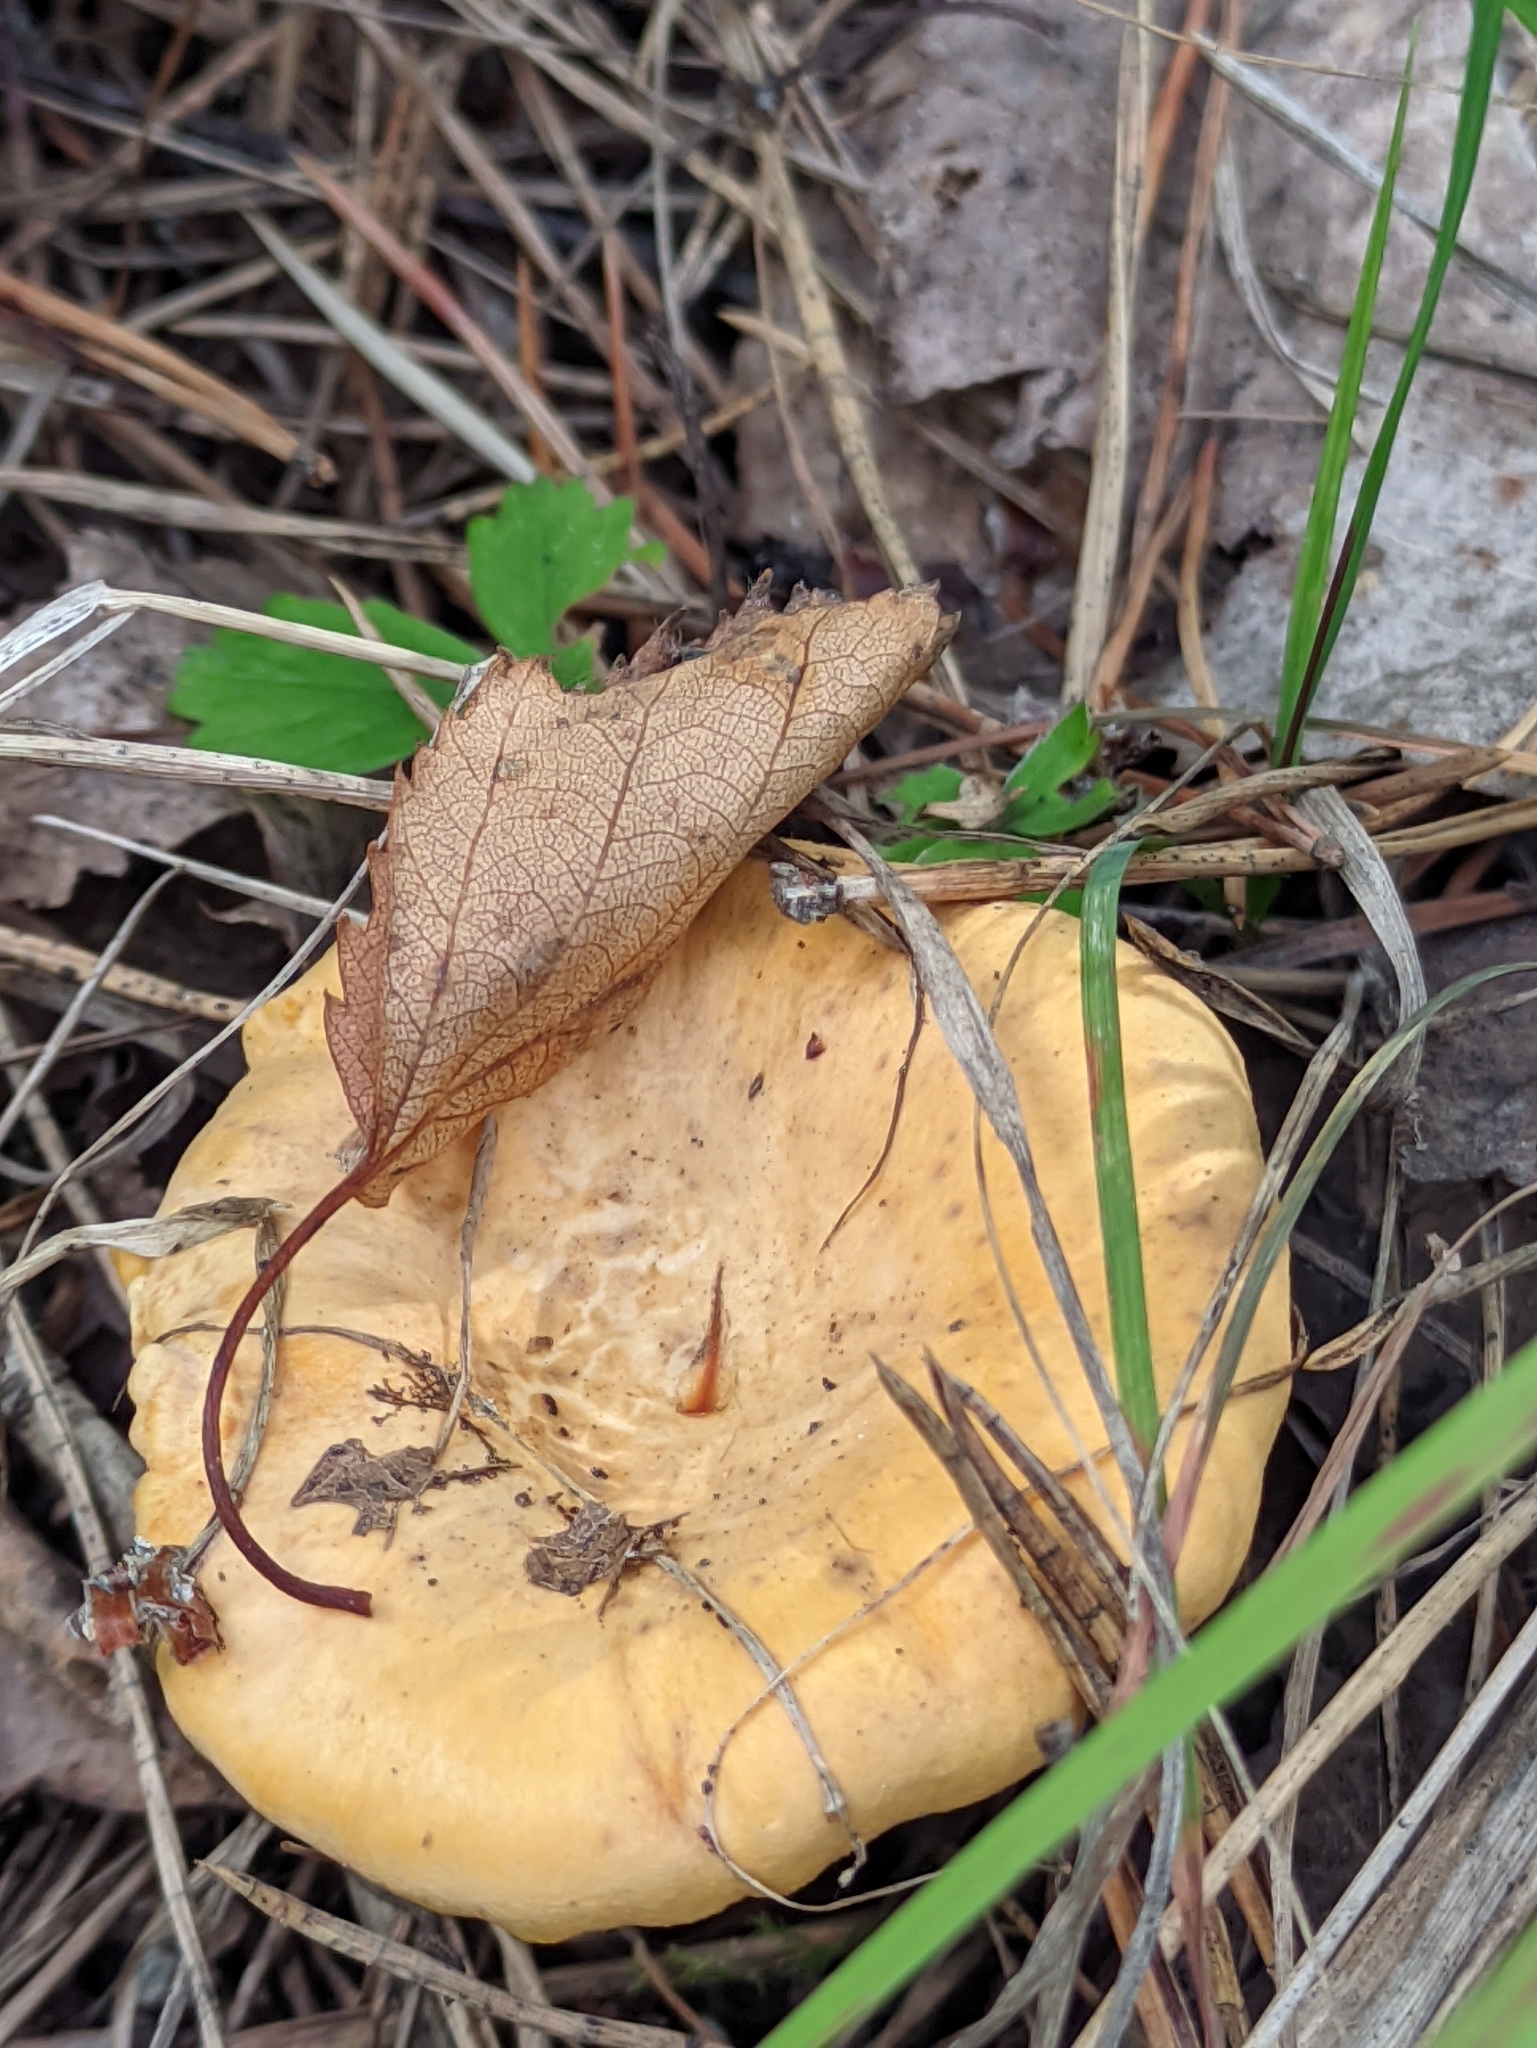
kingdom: Fungi
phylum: Basidiomycota
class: Agaricomycetes
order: Cantharellales
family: Hydnaceae
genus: Cantharellus
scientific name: Cantharellus cibarius
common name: Chanterelle
